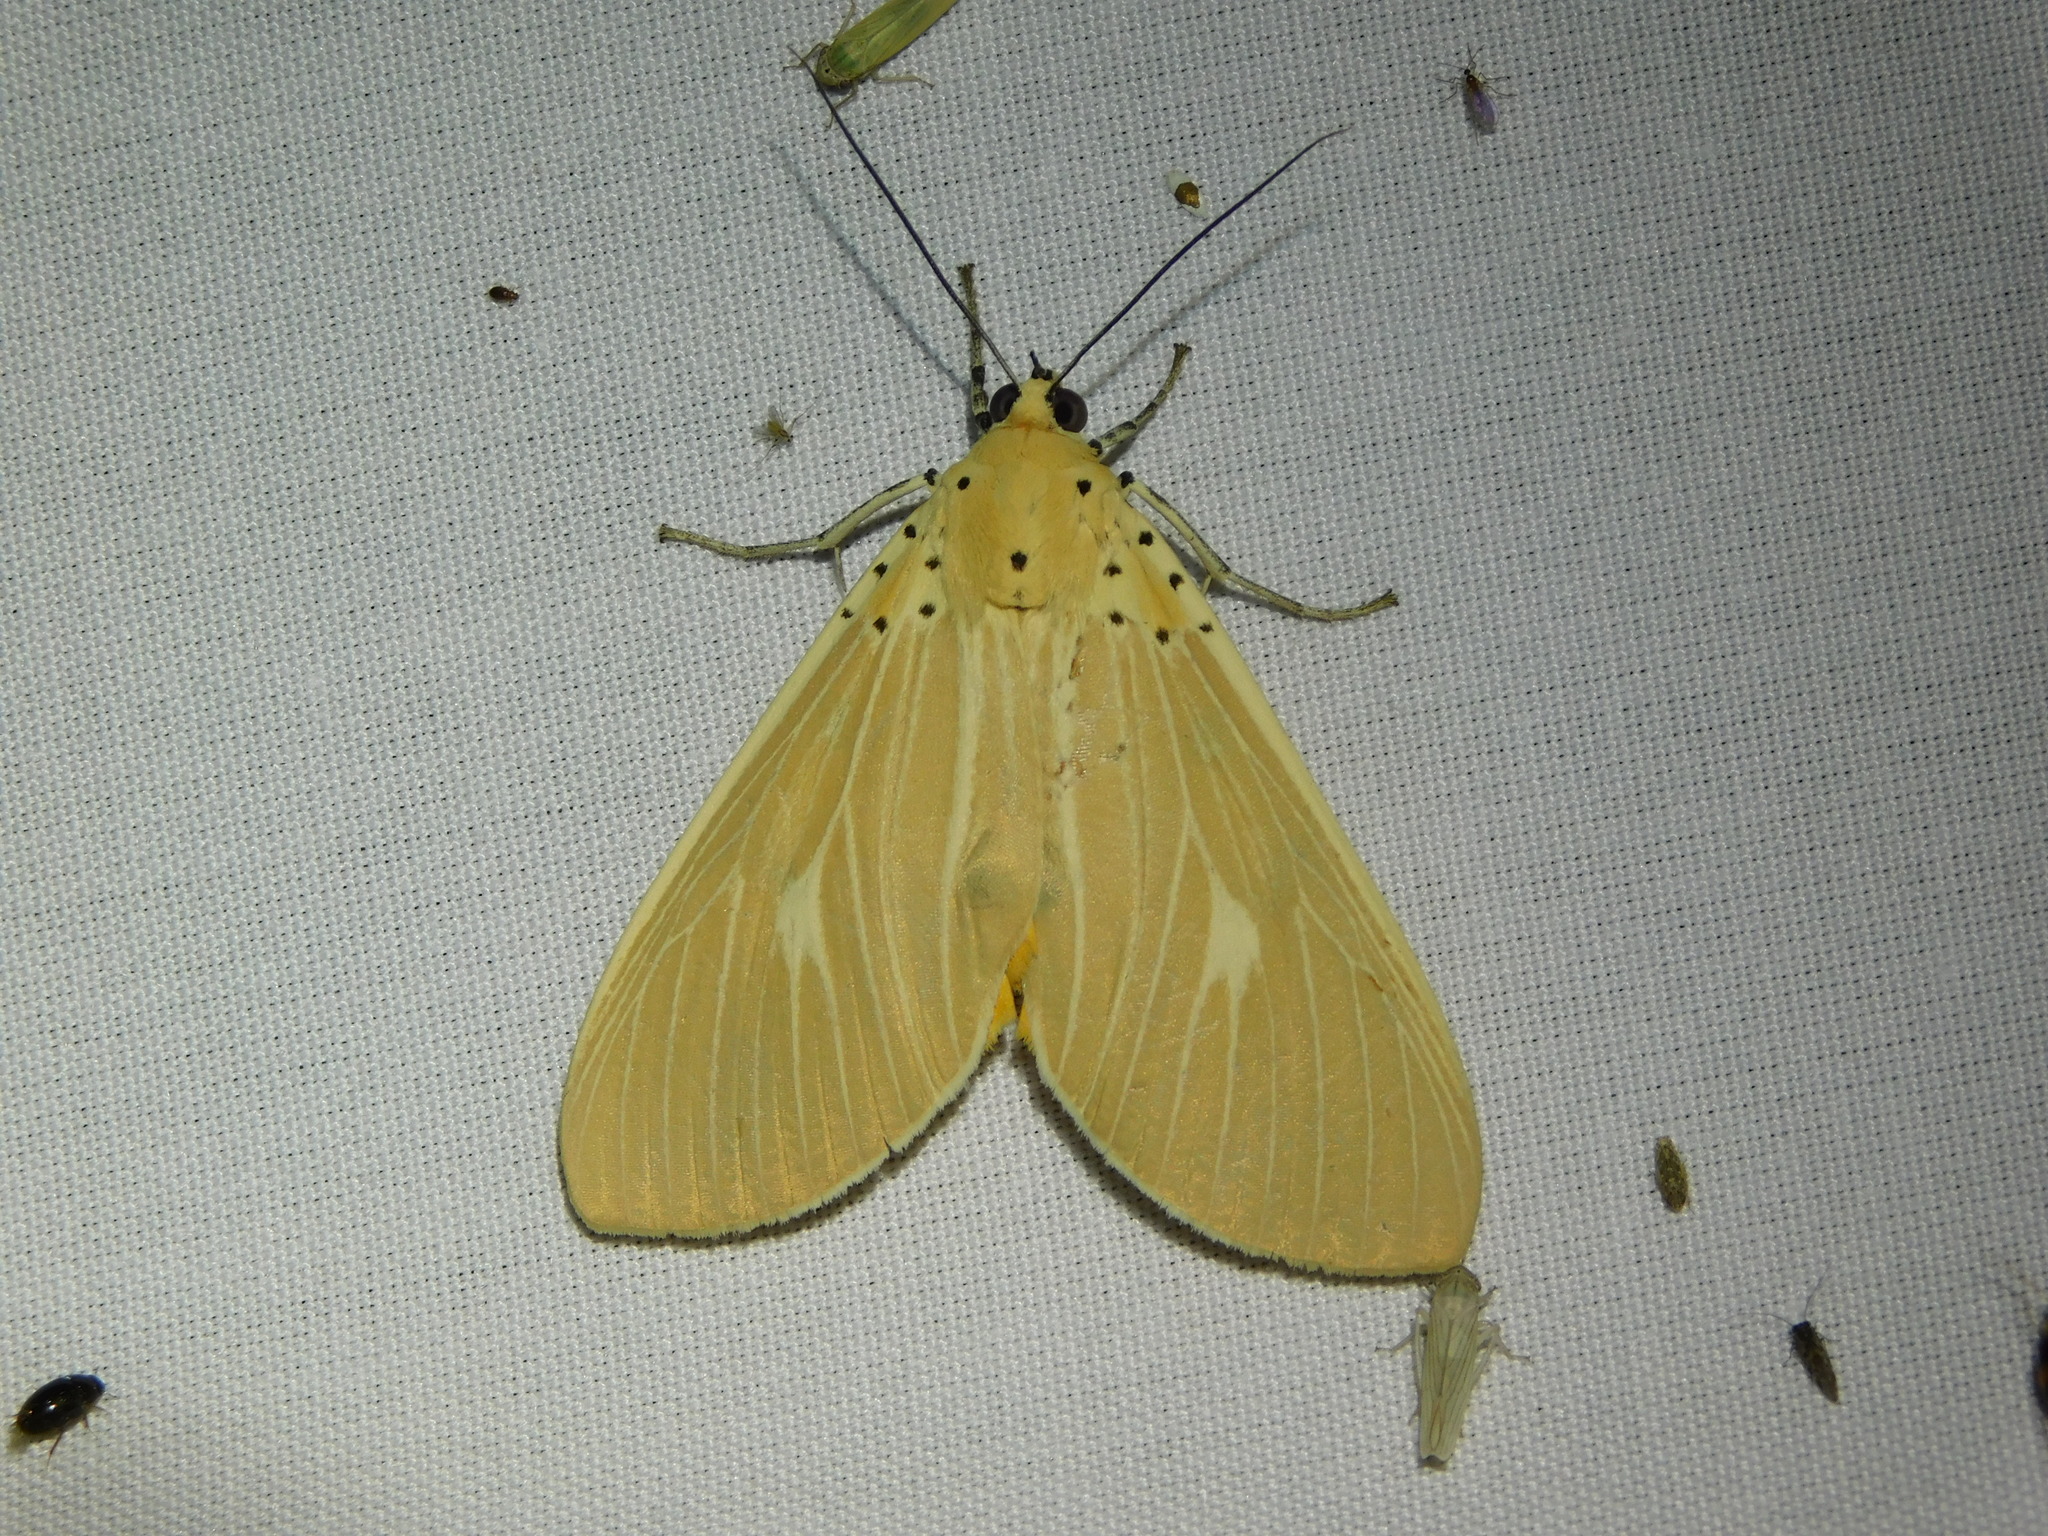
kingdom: Animalia
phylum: Arthropoda
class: Insecta
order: Lepidoptera
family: Erebidae
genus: Asota
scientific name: Asota producta
